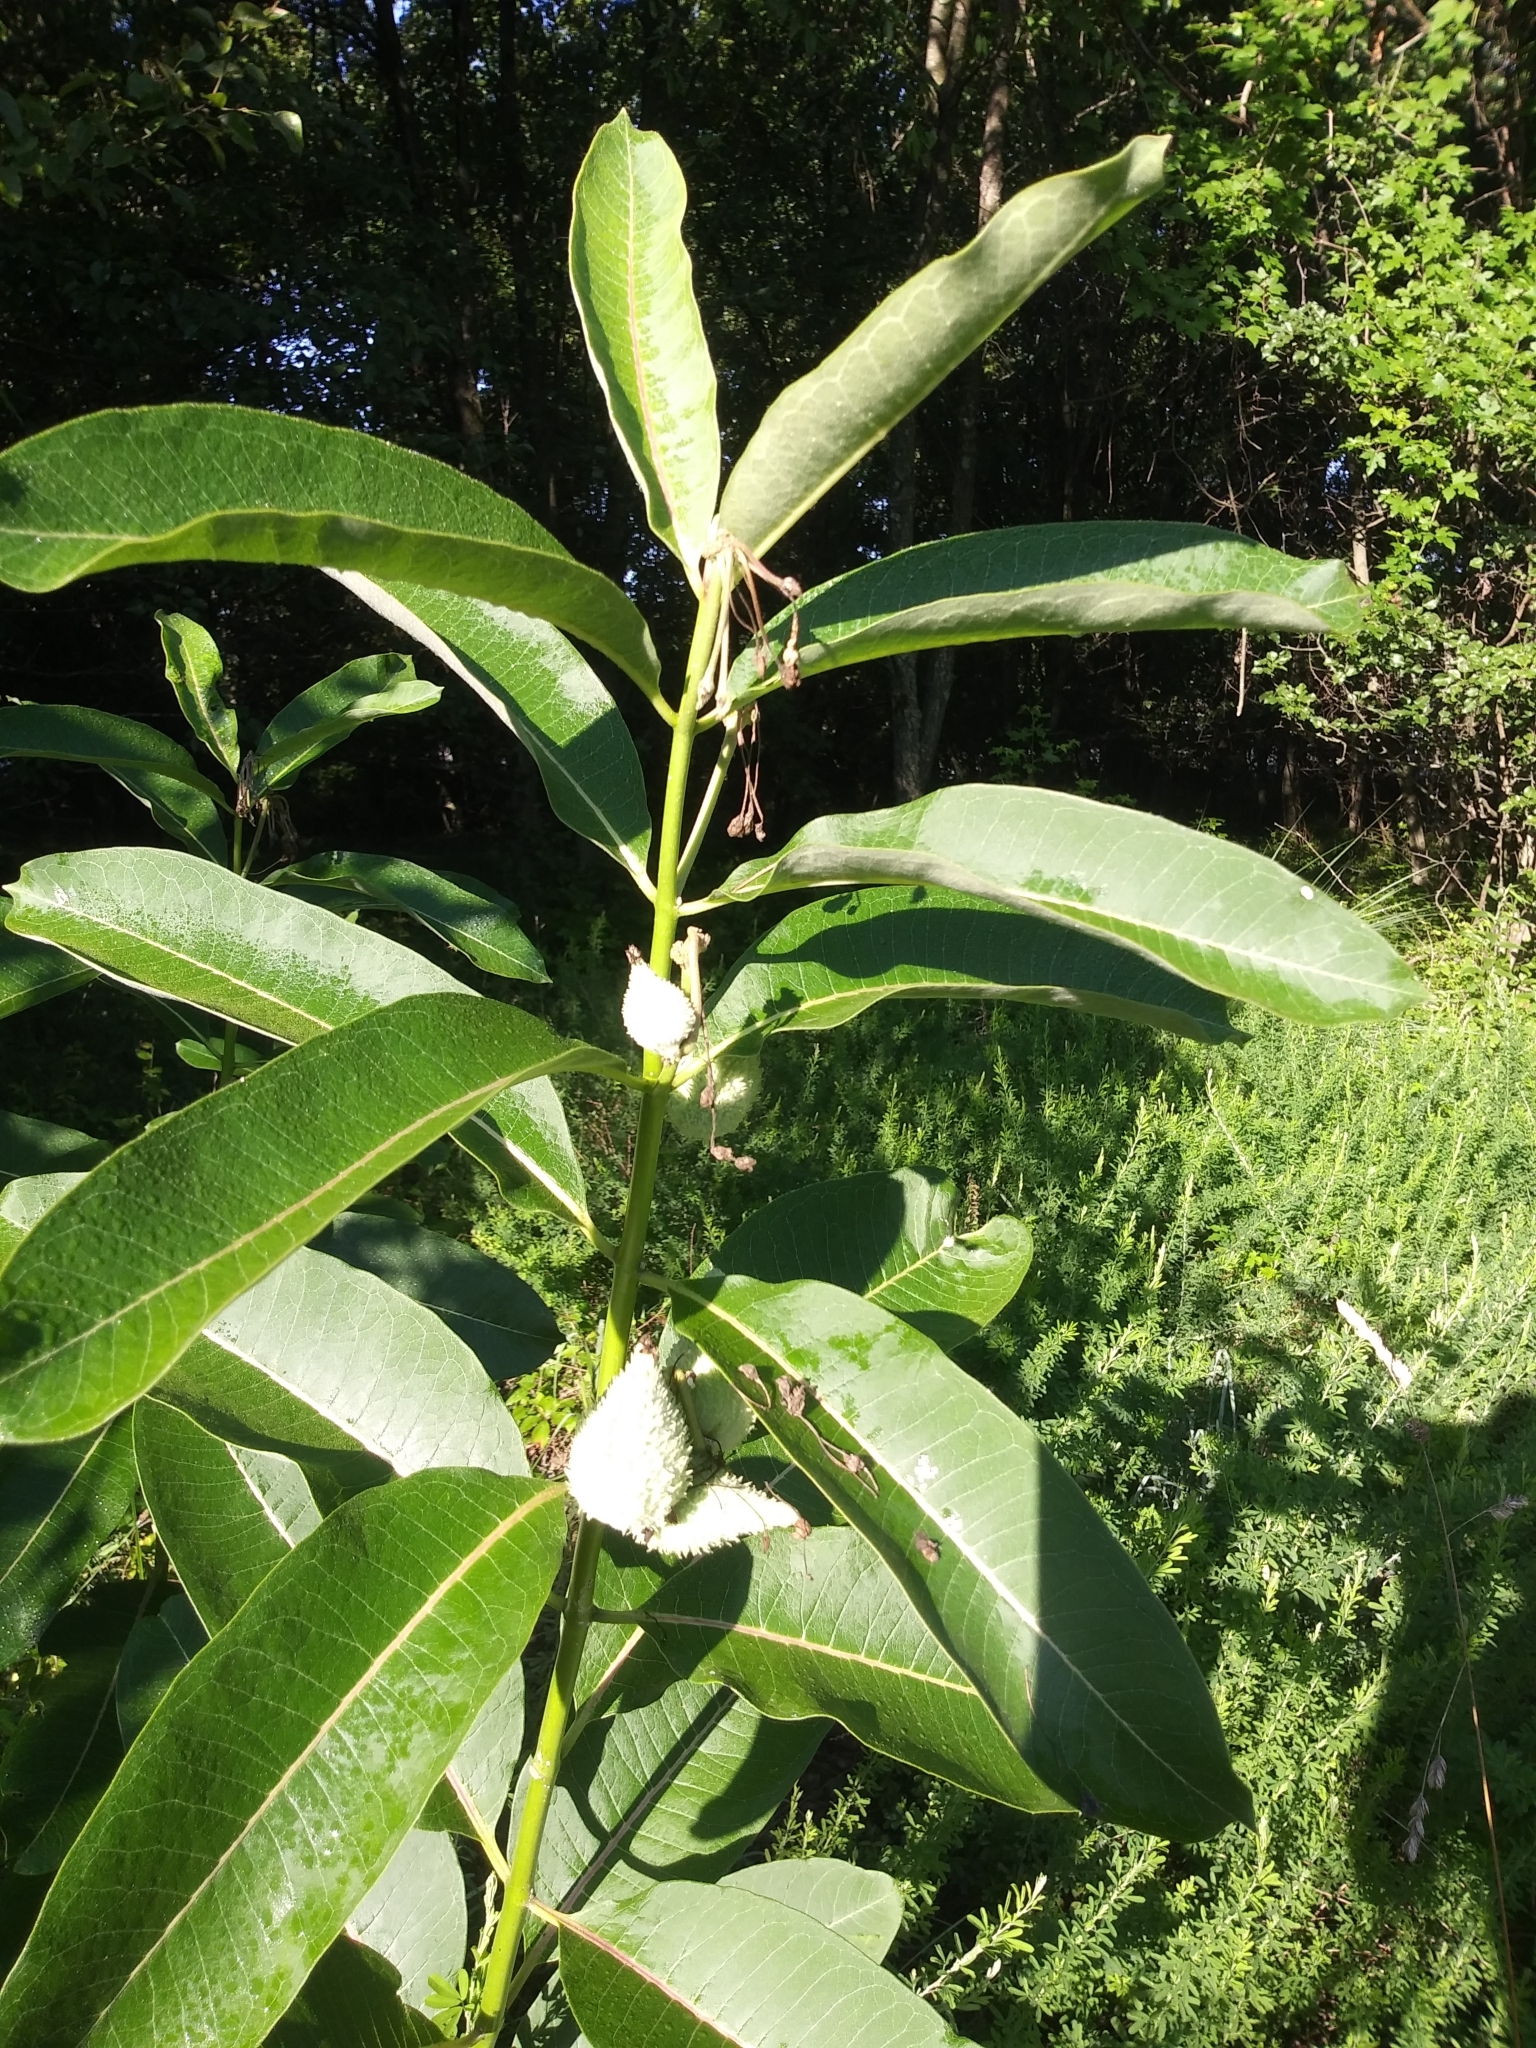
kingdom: Plantae
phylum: Tracheophyta
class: Magnoliopsida
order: Gentianales
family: Apocynaceae
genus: Asclepias
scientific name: Asclepias syriaca
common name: Common milkweed
